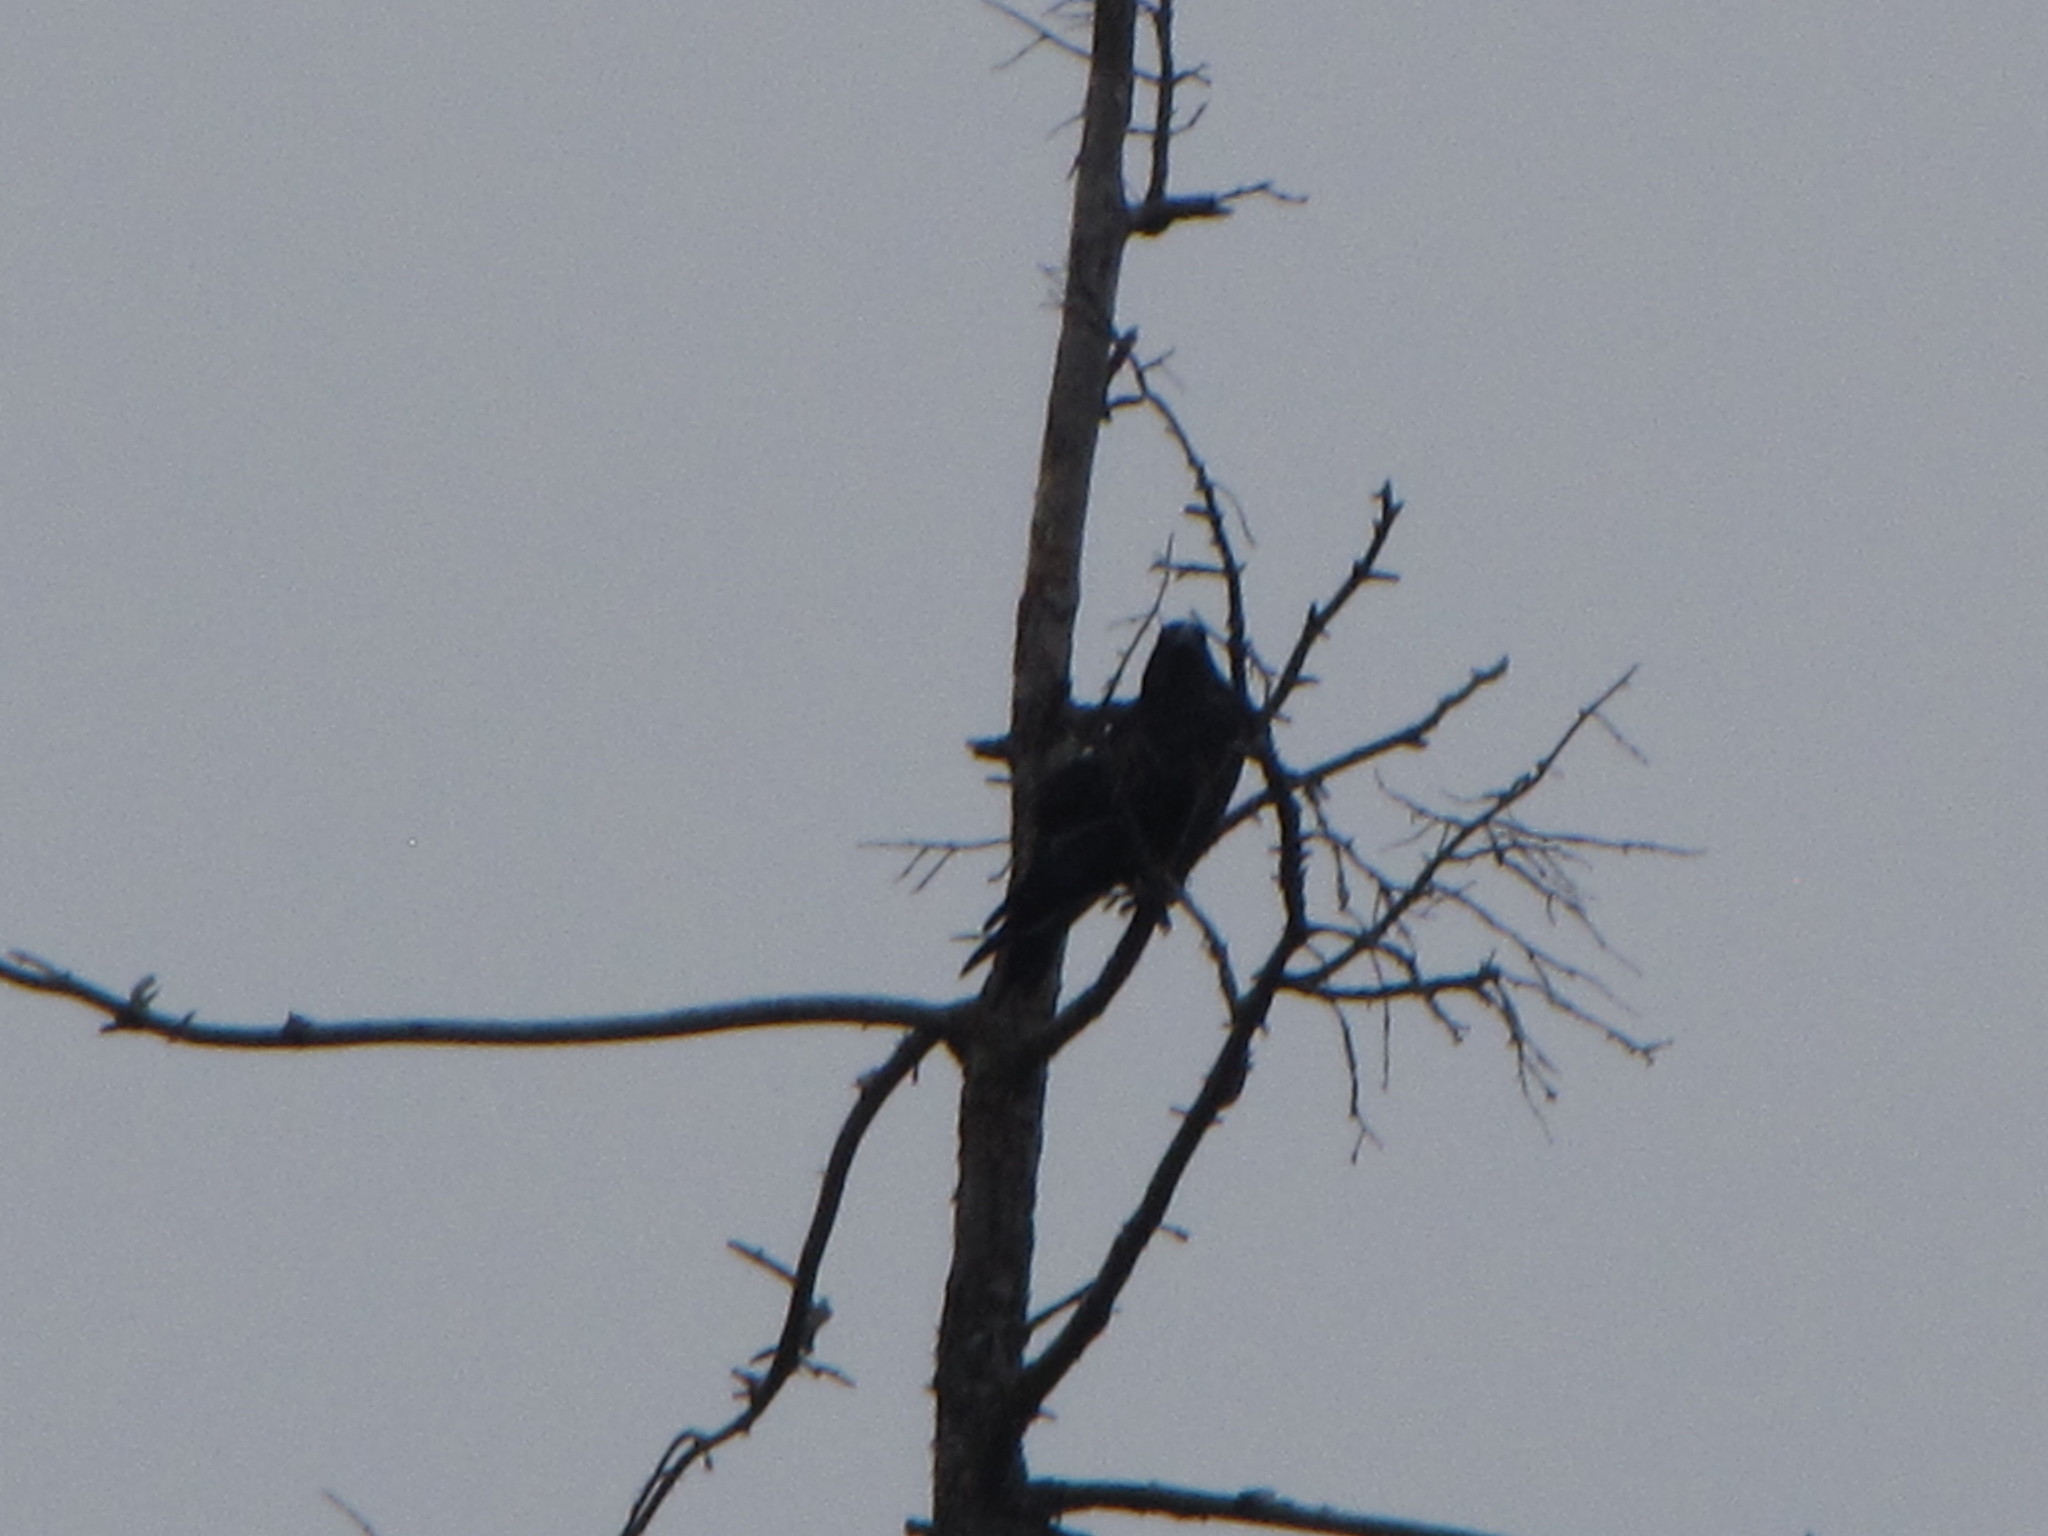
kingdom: Animalia
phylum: Chordata
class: Aves
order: Passeriformes
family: Corvidae
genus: Corvus
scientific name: Corvus corax
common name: Common raven
